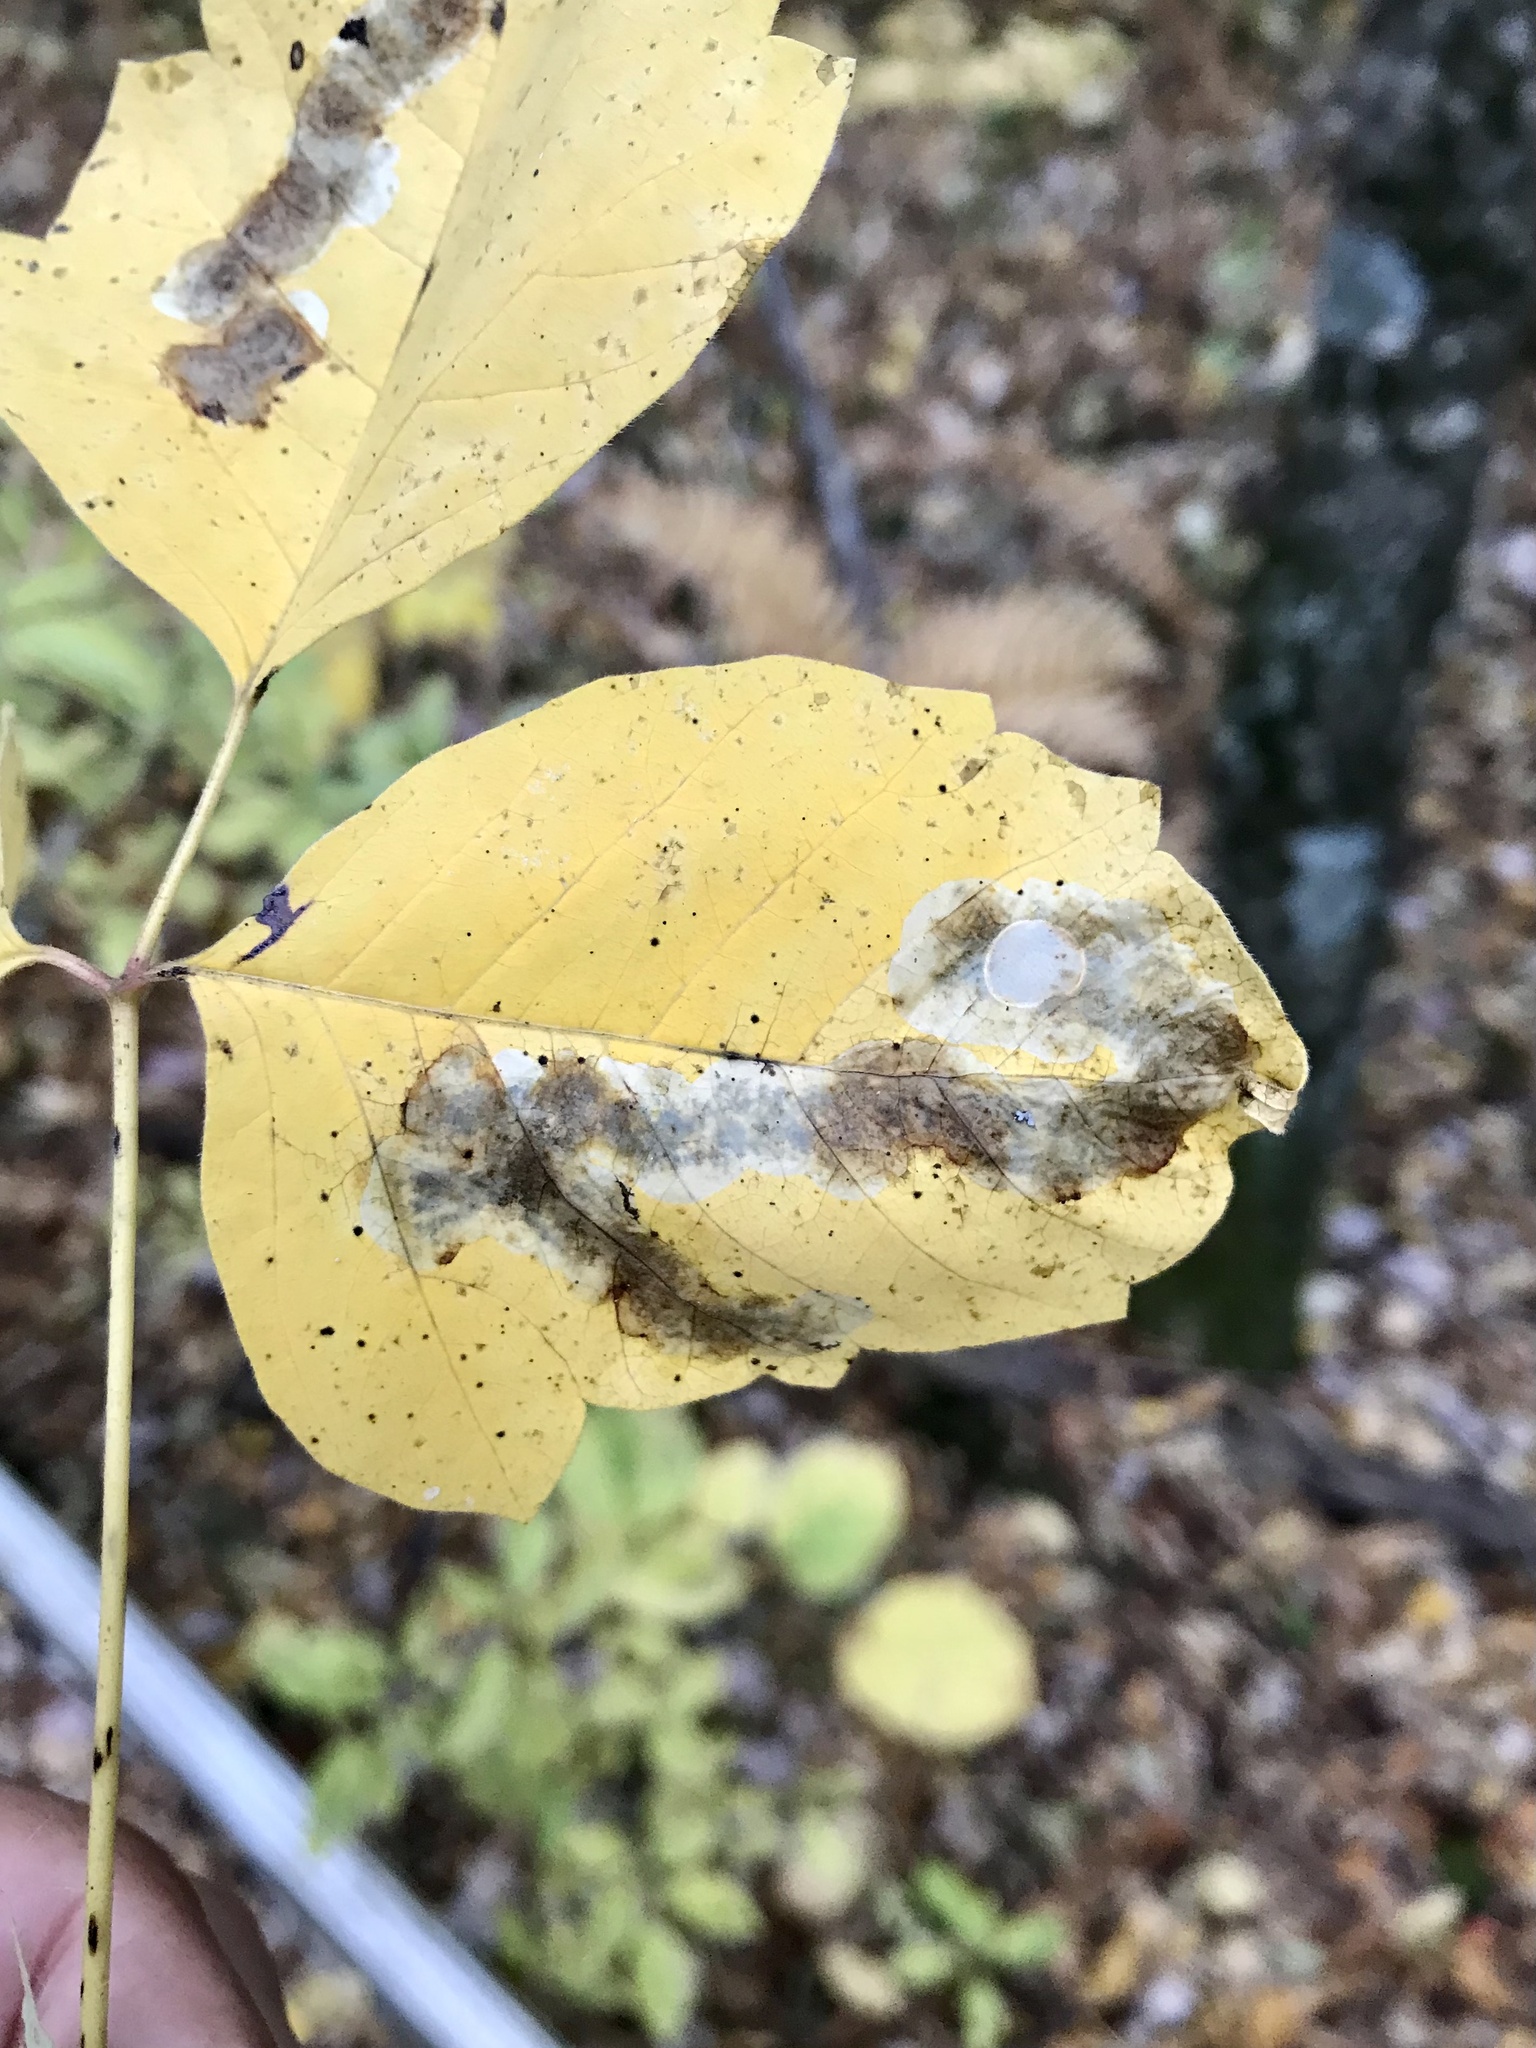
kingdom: Animalia
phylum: Arthropoda
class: Insecta
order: Lepidoptera
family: Gracillariidae
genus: Cameraria
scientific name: Cameraria guttifinitella
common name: Poison ivy leaf-miner moth
